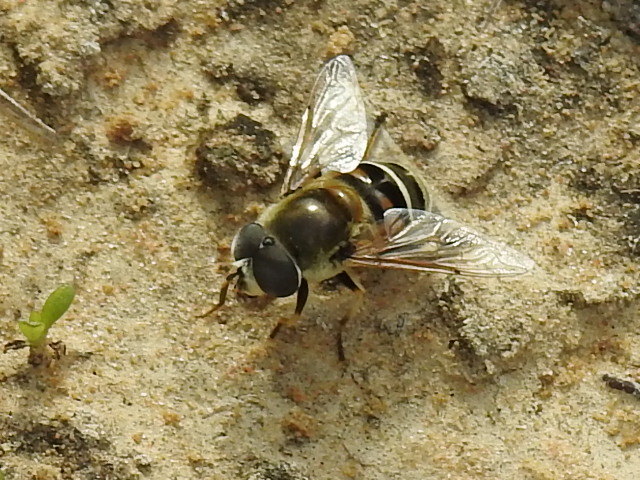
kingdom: Animalia
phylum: Arthropoda
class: Insecta
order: Diptera
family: Syrphidae
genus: Eristalis
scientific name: Eristalis stipator
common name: Yellow-shouldered drone fly
